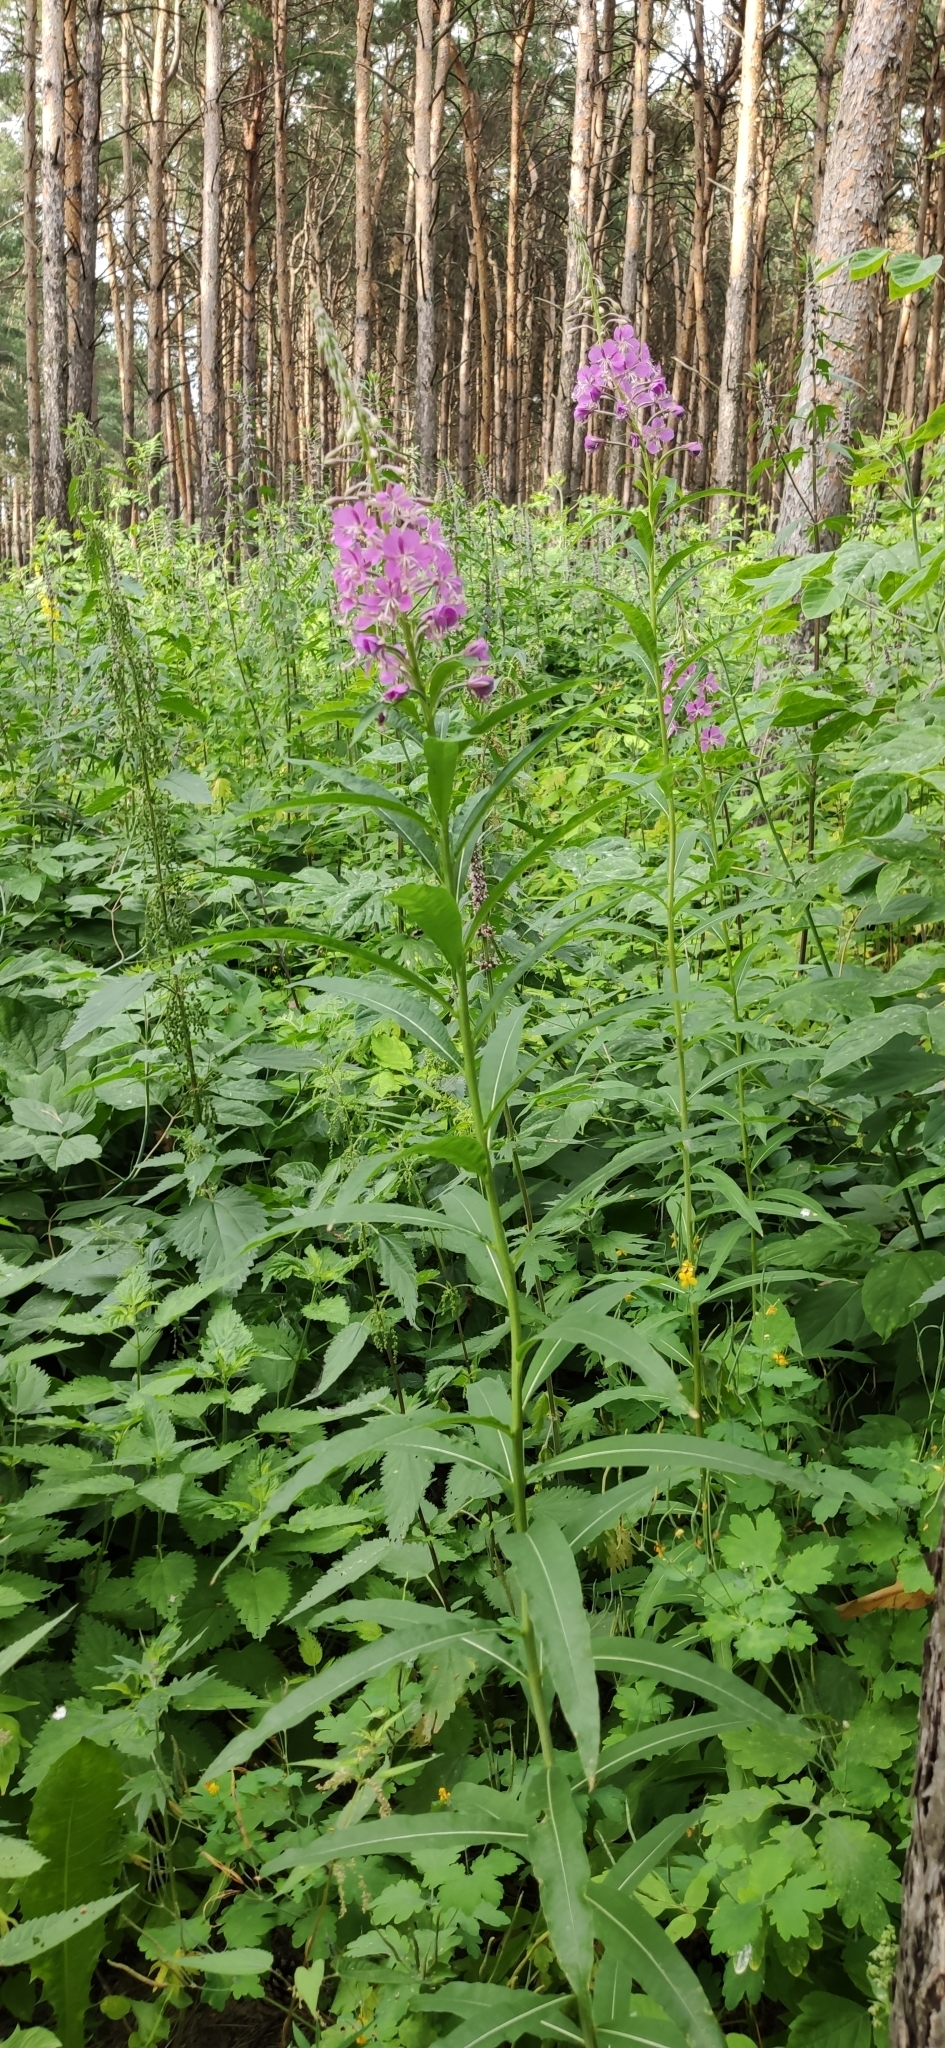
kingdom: Plantae
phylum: Tracheophyta
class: Magnoliopsida
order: Myrtales
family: Onagraceae
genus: Chamaenerion
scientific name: Chamaenerion angustifolium
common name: Fireweed
